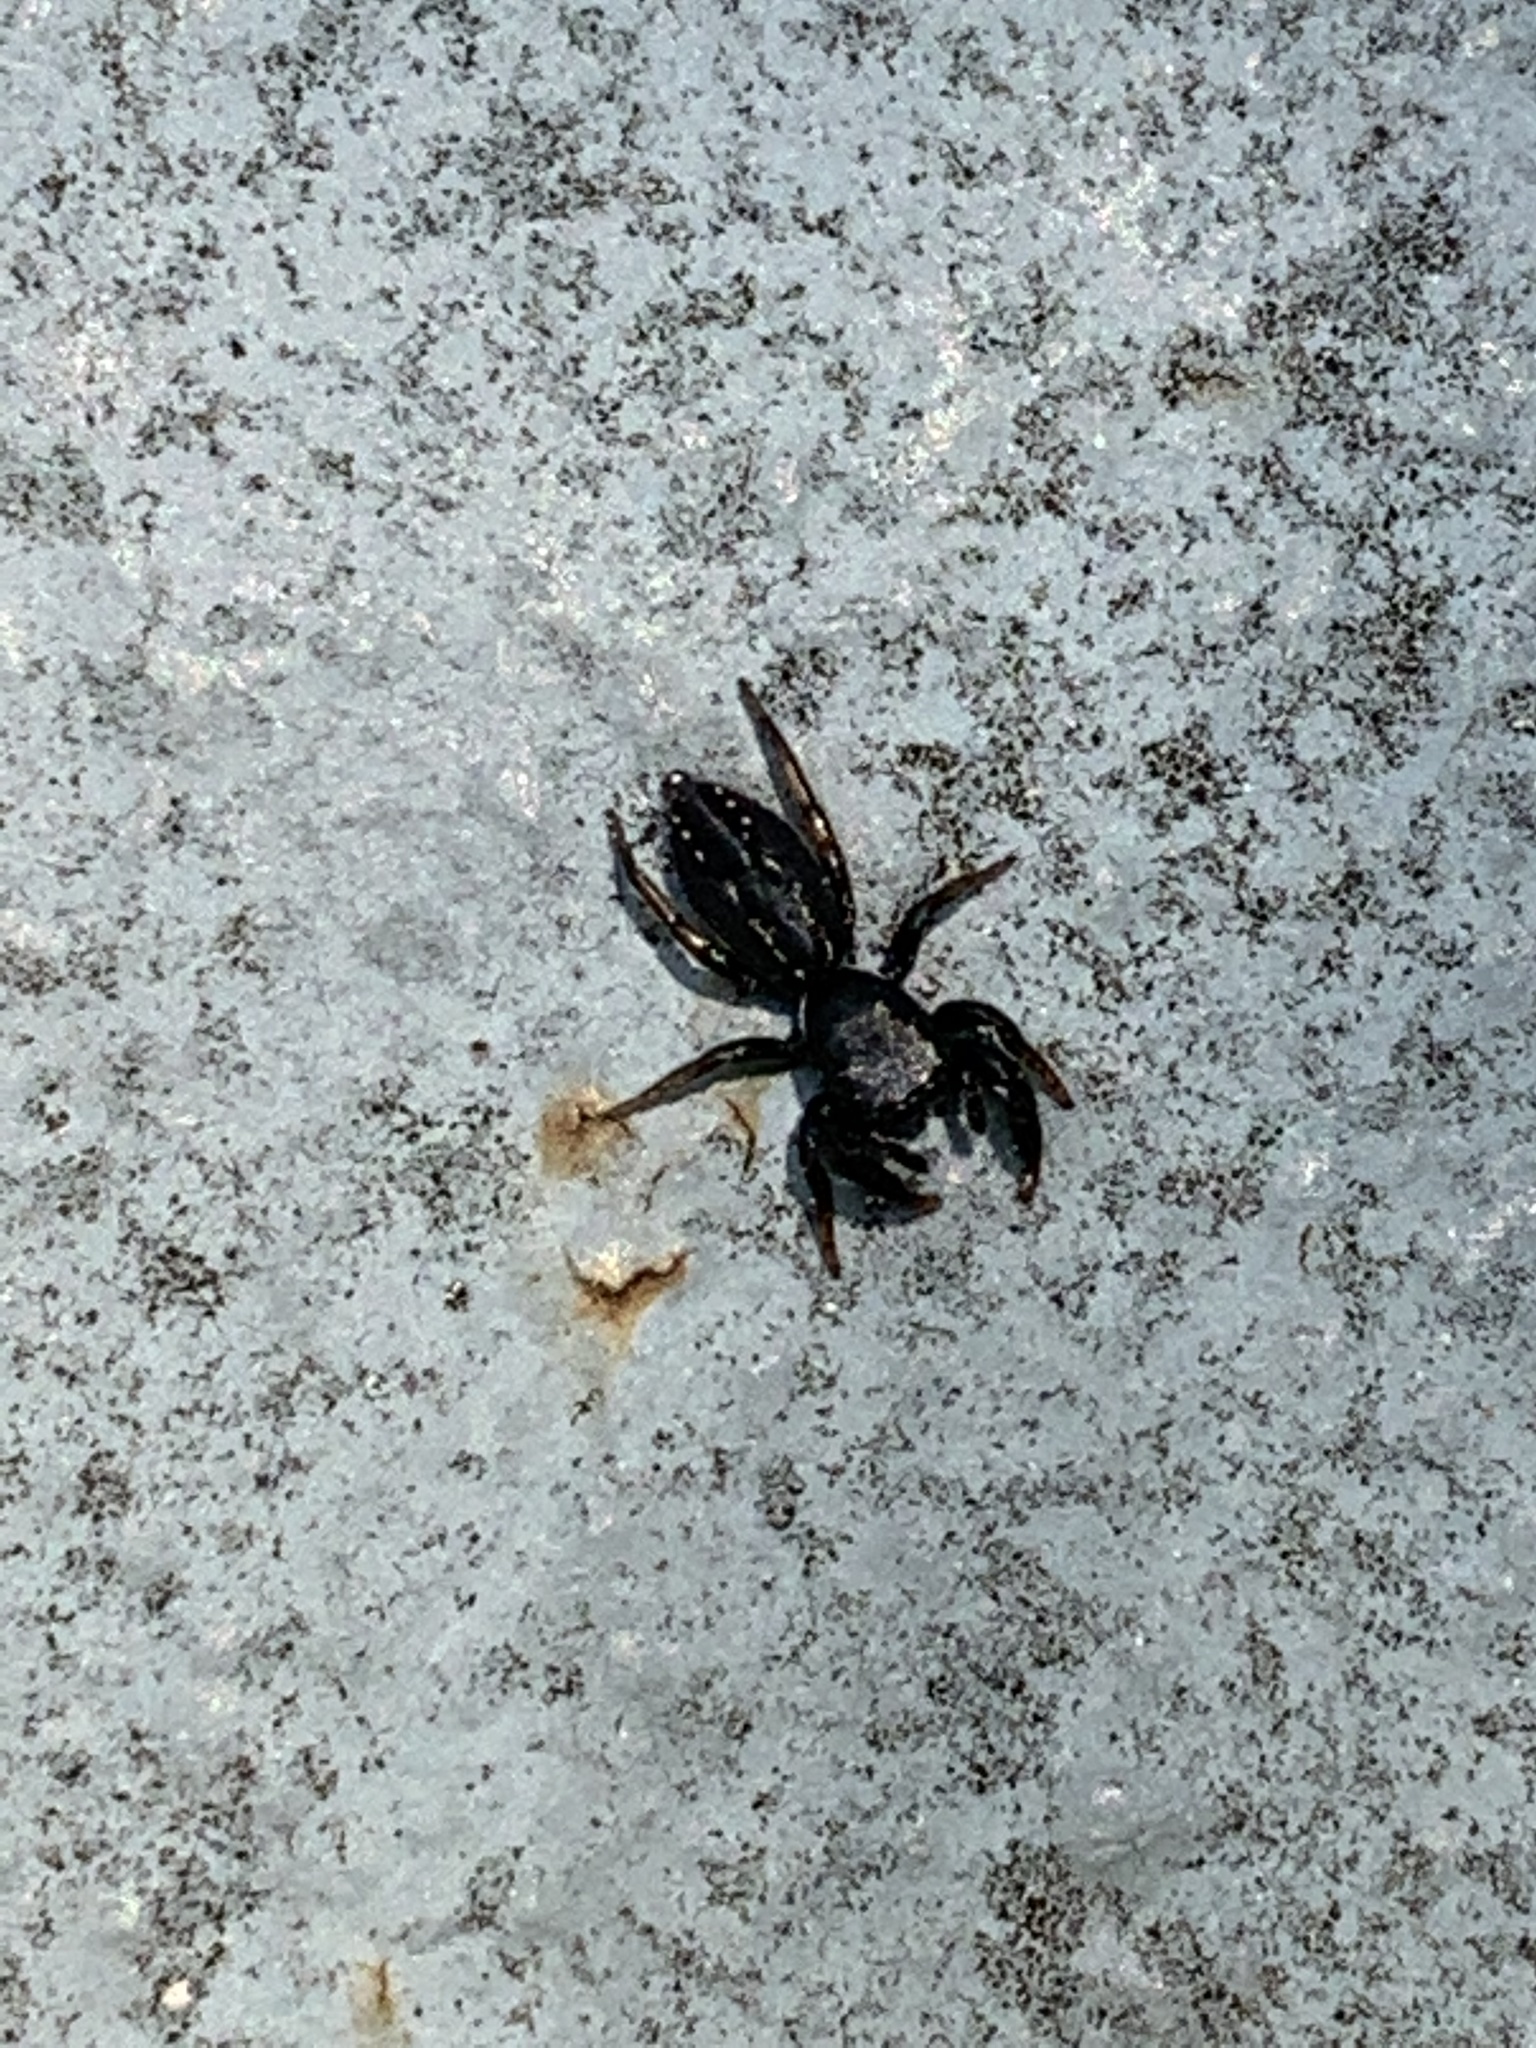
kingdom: Animalia
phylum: Arthropoda
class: Arachnida
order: Araneae
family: Salticidae
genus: Metacyrba
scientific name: Metacyrba taeniola
